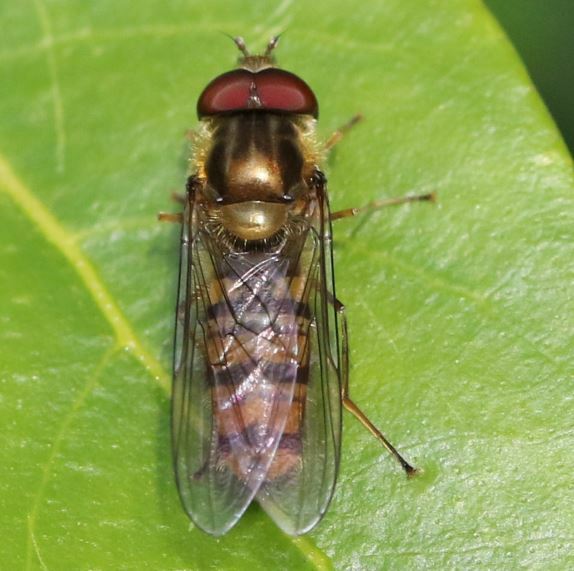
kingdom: Animalia
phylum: Arthropoda
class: Insecta
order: Diptera
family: Syrphidae
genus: Episyrphus
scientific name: Episyrphus balteatus
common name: Marmalade hoverfly
